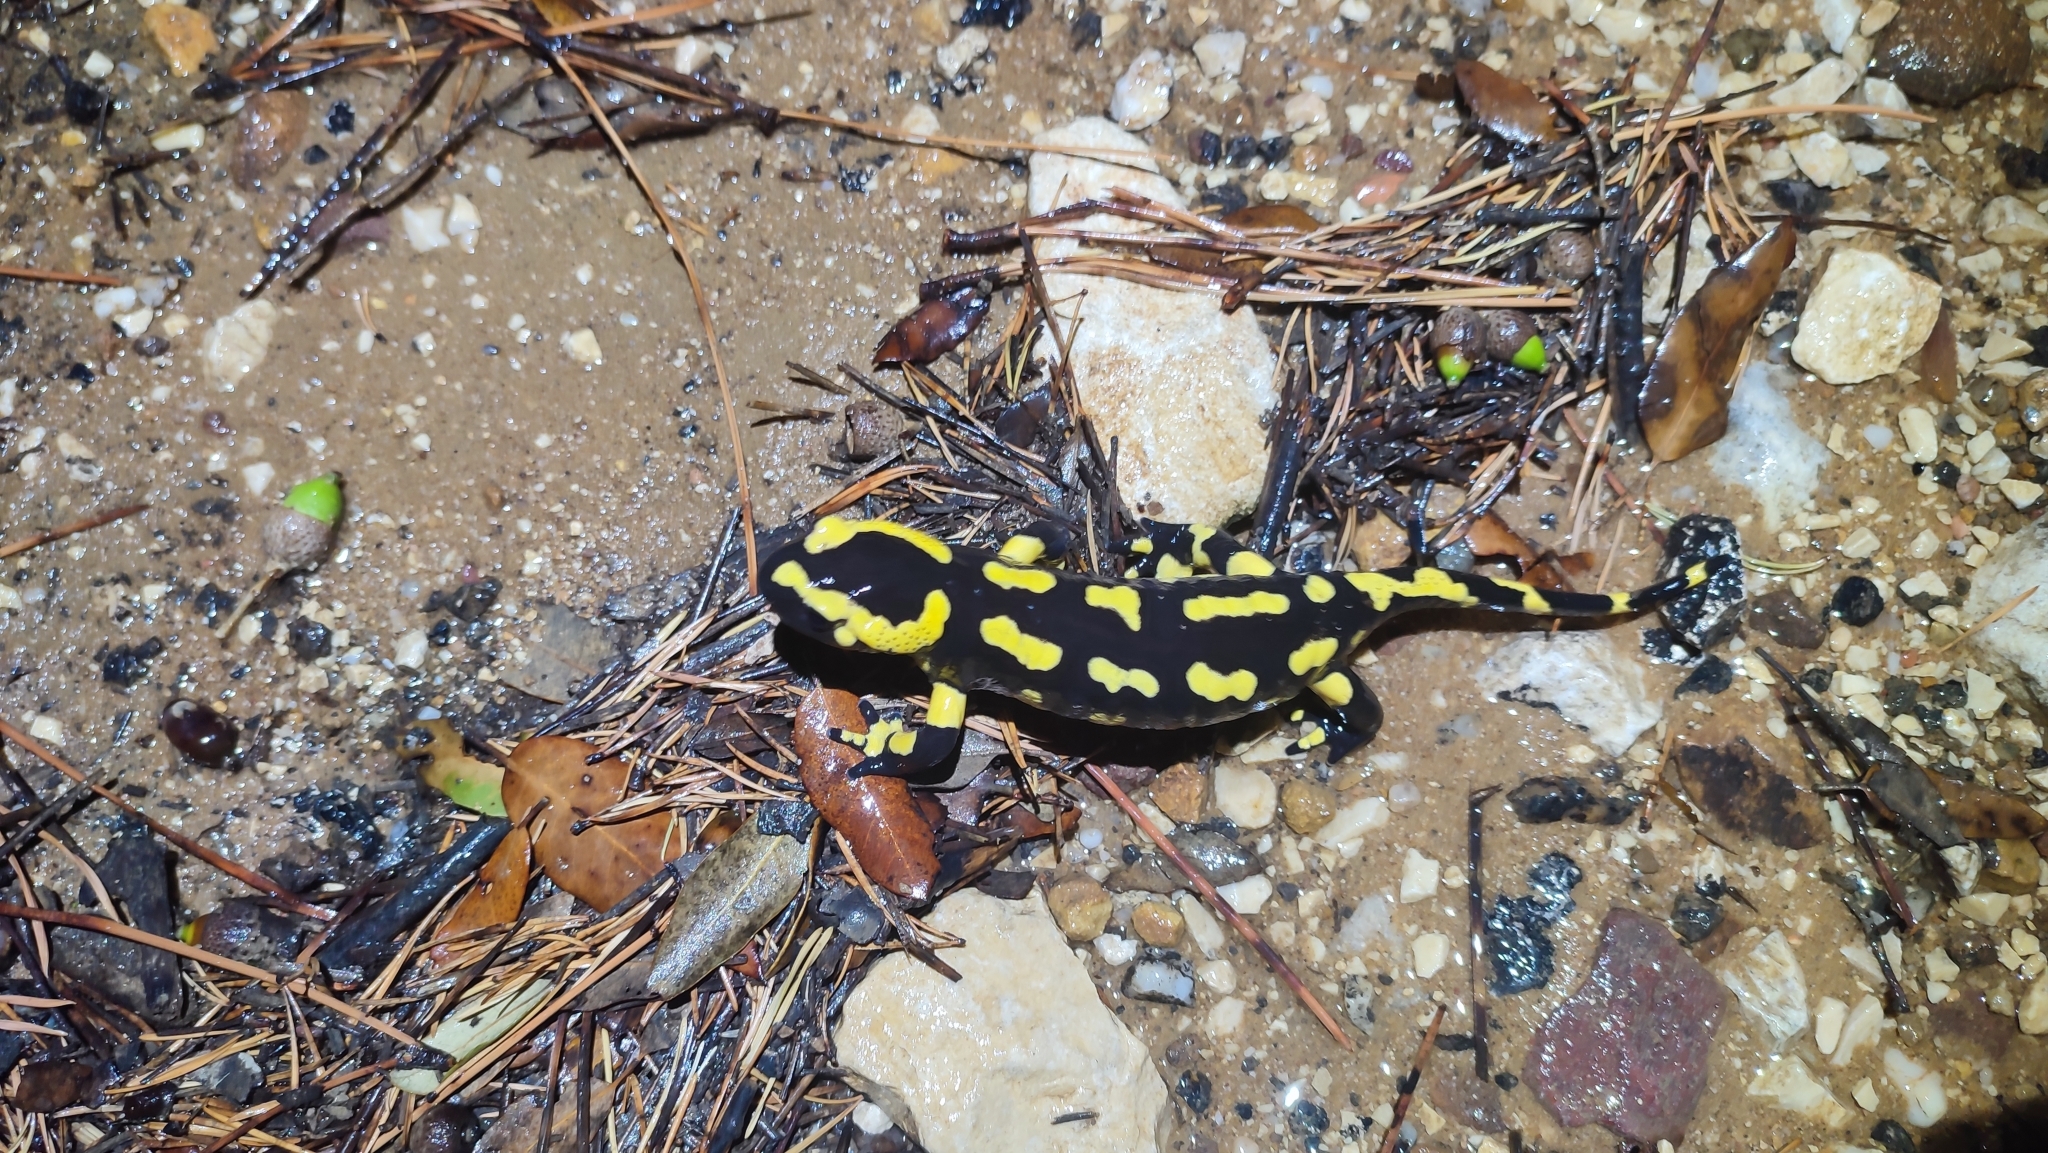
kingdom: Animalia
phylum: Chordata
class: Amphibia
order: Caudata
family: Salamandridae
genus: Salamandra
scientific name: Salamandra salamandra
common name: Fire salamander
